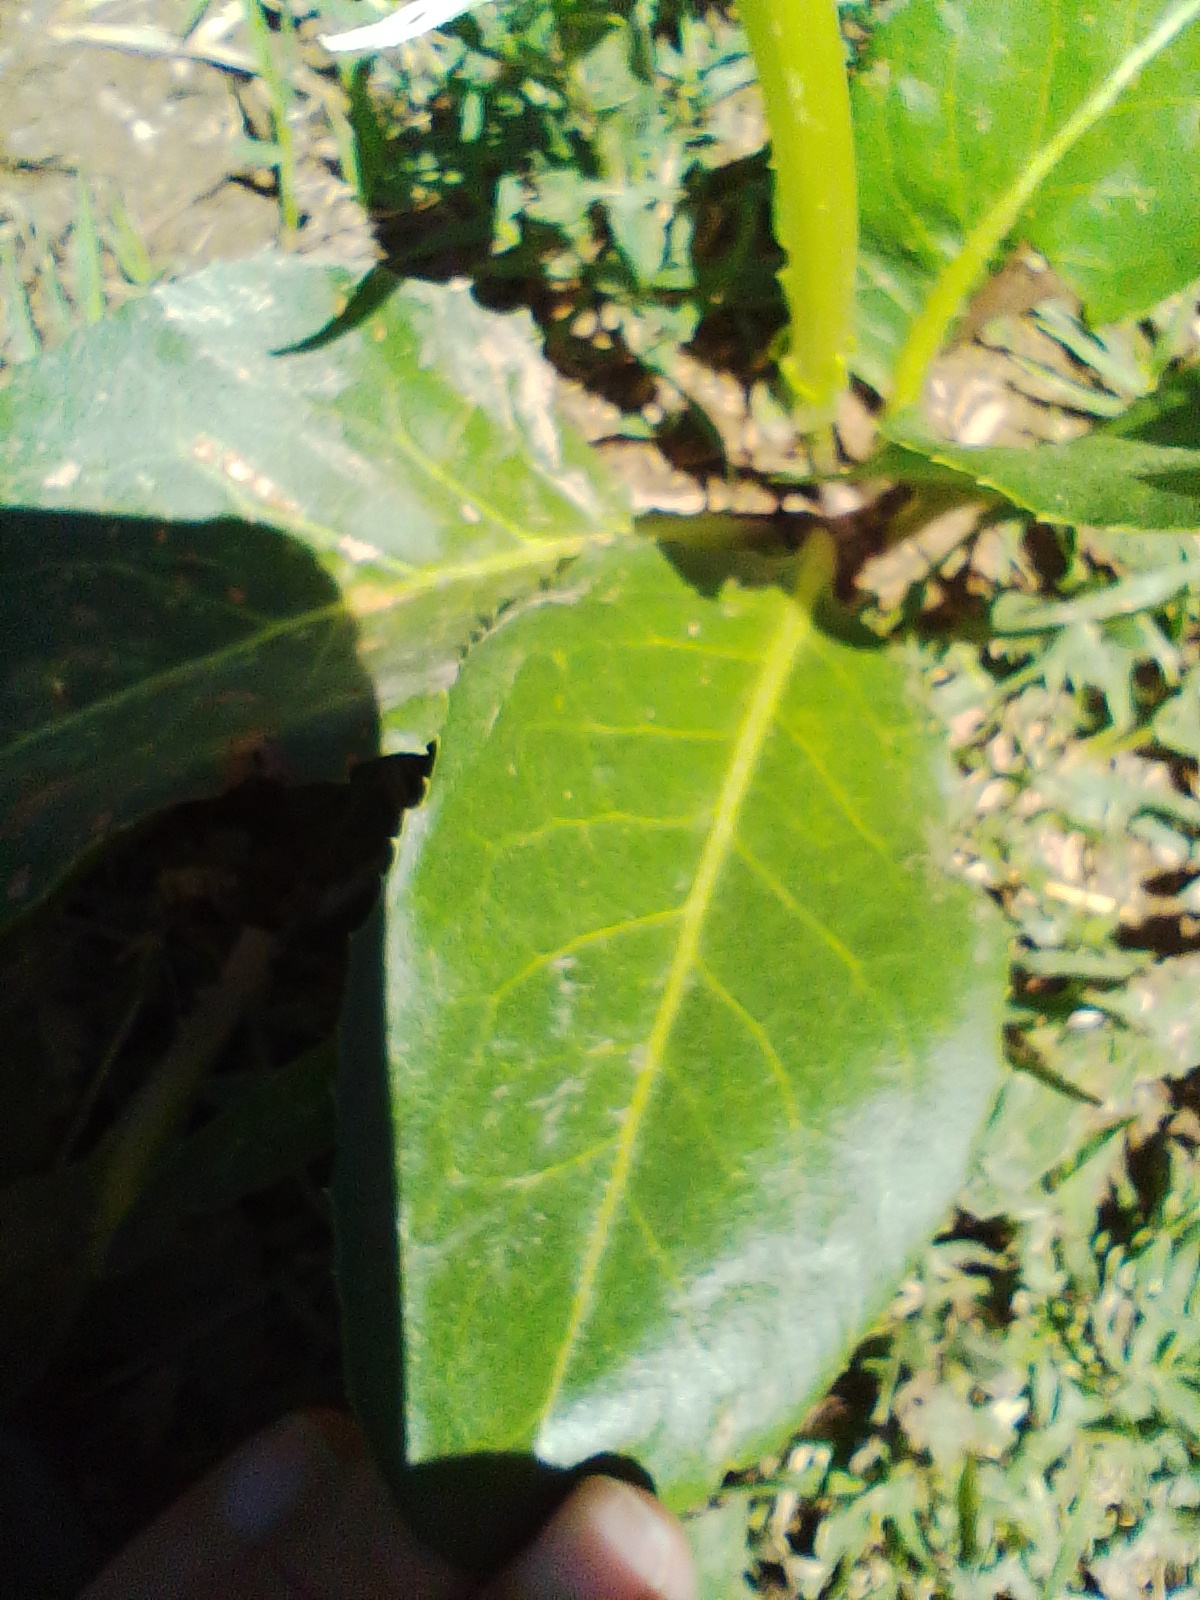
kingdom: Plantae
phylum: Tracheophyta
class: Magnoliopsida
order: Solanales
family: Solanaceae
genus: Jaborosa
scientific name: Jaborosa integrifolia
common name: Springblossom
